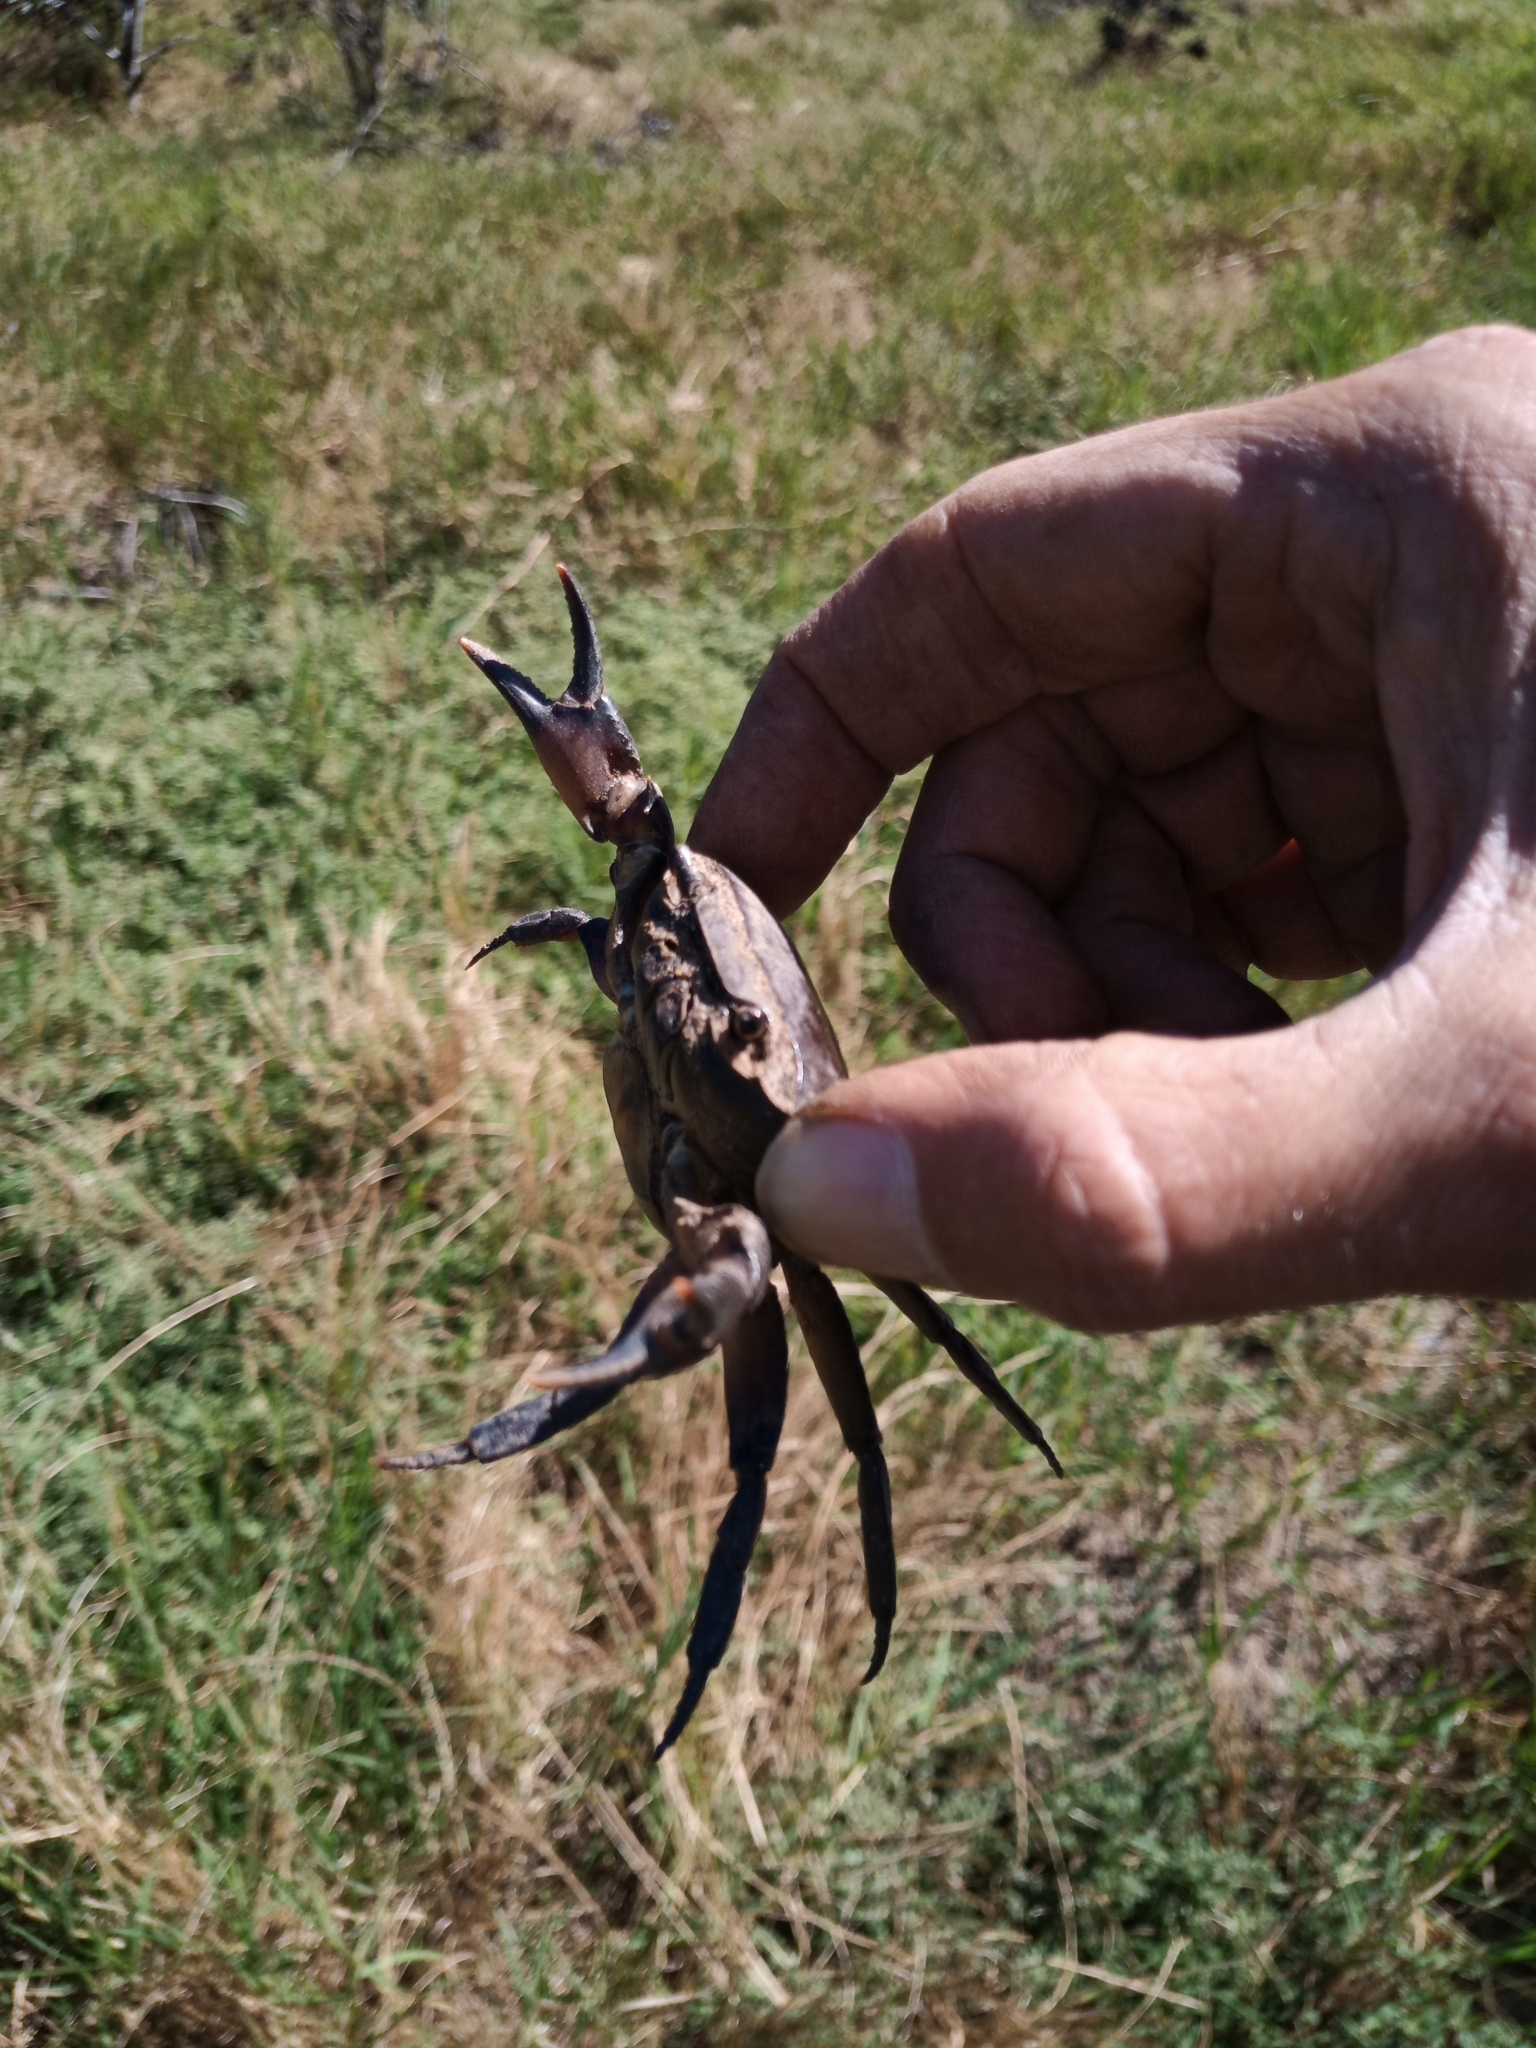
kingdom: Animalia
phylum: Arthropoda
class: Malacostraca
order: Decapoda
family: Potamonautidae
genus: Potamonautes
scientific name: Potamonautes perlatus
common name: Cape river crab
